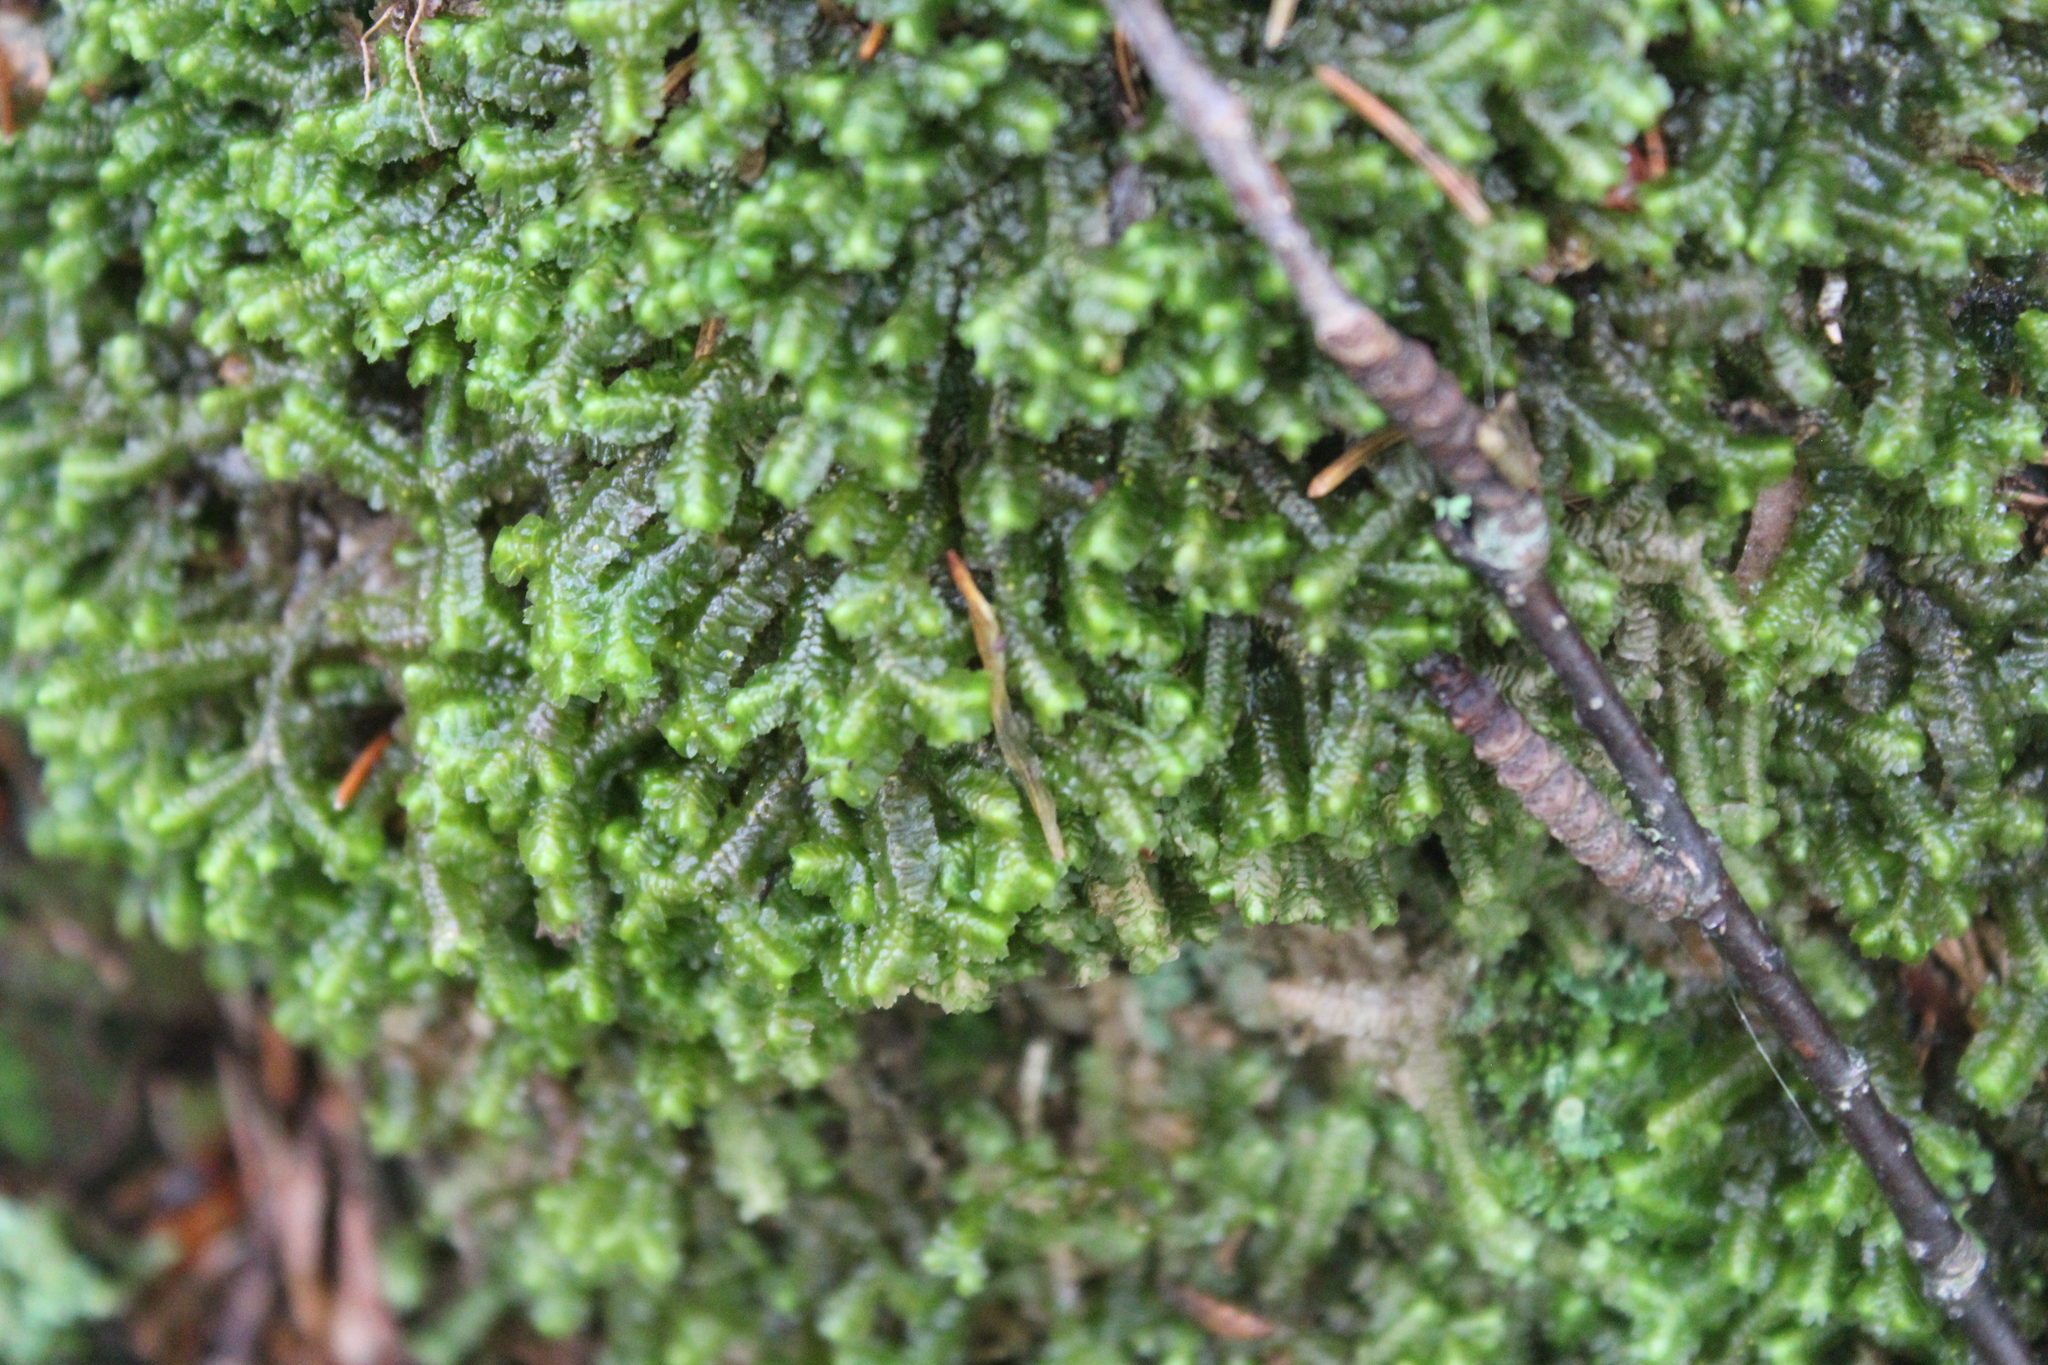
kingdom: Plantae
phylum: Marchantiophyta
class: Jungermanniopsida
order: Jungermanniales
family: Lepidoziaceae
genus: Bazzania
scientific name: Bazzania trilobata
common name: Three-lobed whipwort
